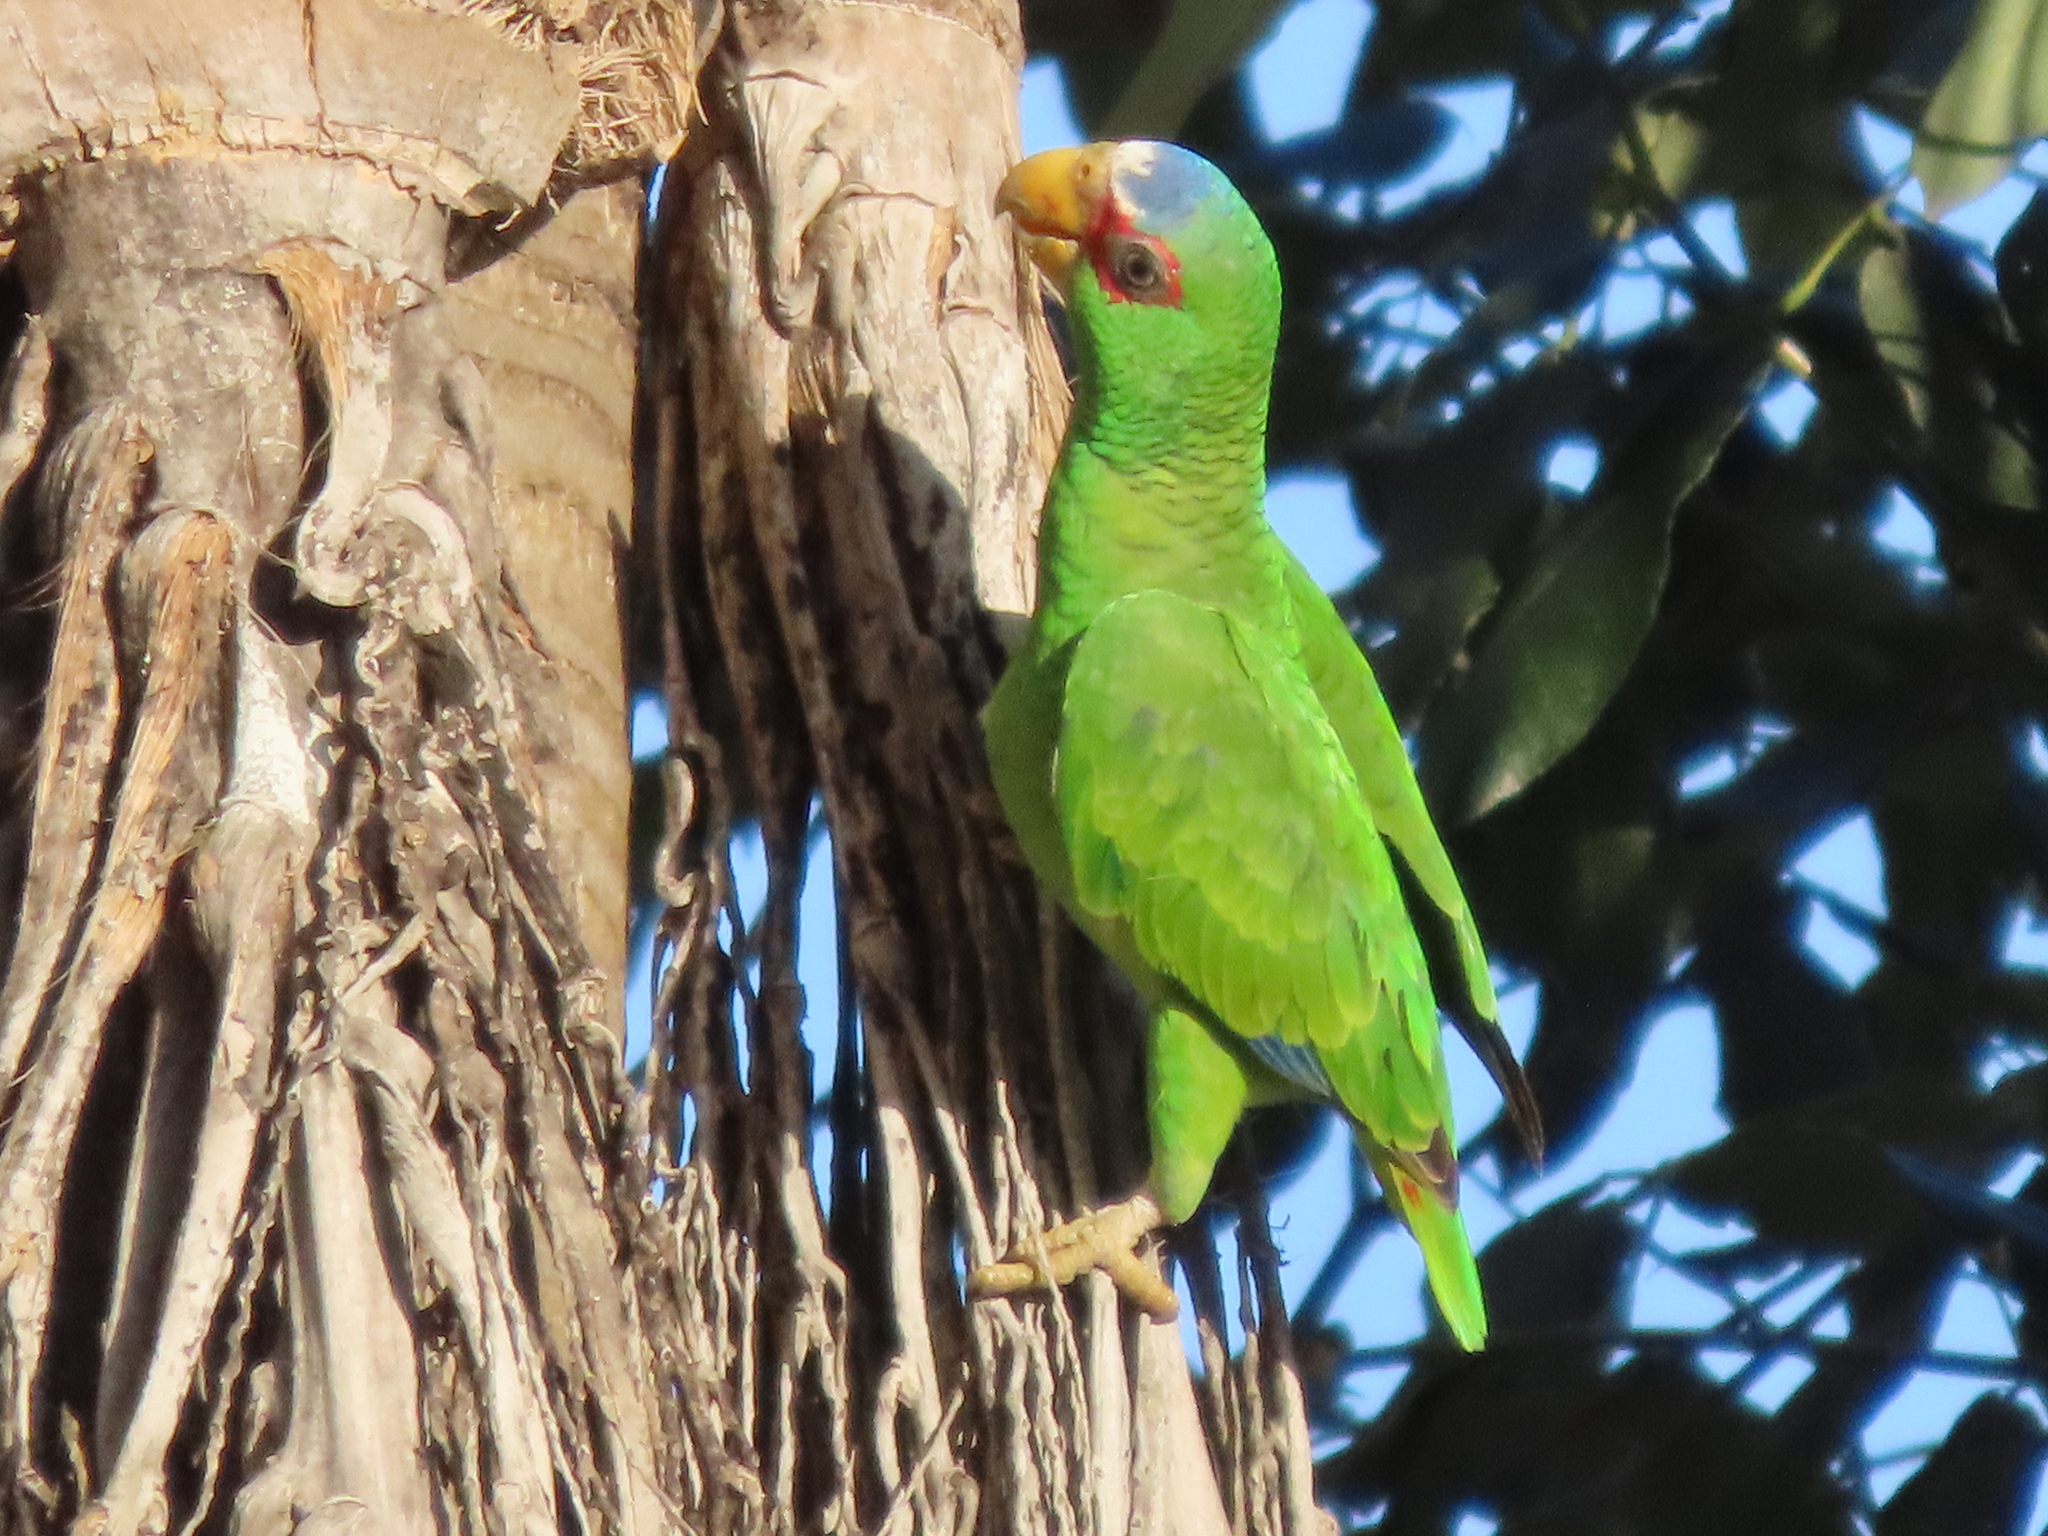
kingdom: Animalia
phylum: Chordata
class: Aves
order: Psittaciformes
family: Psittacidae
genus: Amazona
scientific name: Amazona albifrons
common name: White-fronted amazon
